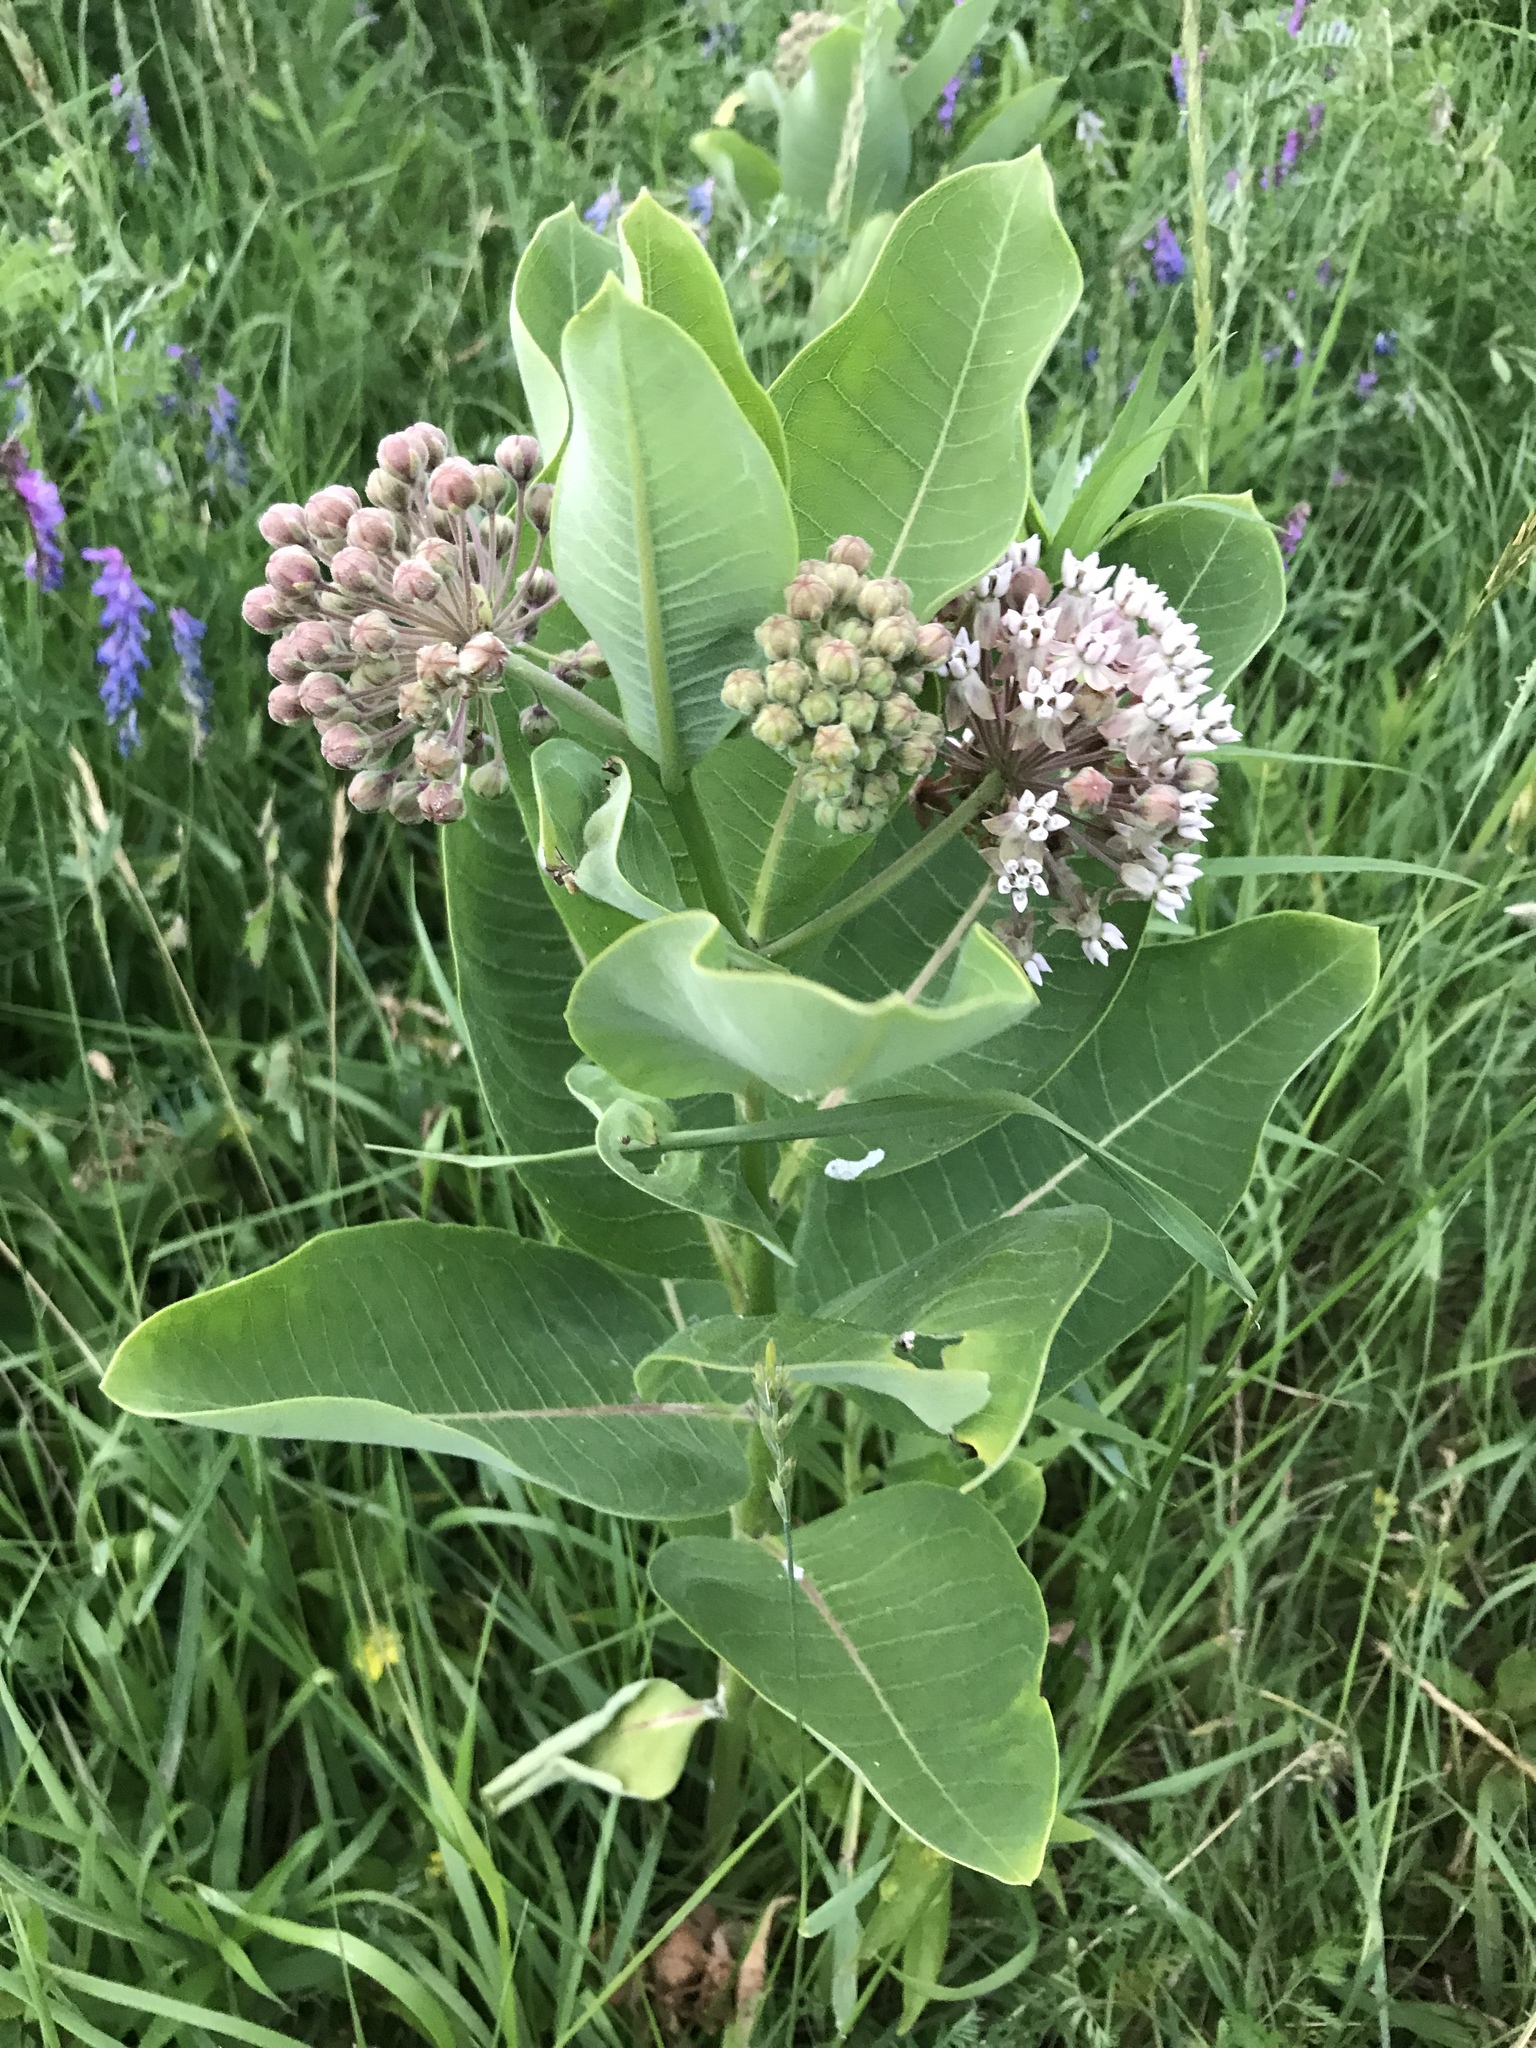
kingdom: Plantae
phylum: Tracheophyta
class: Magnoliopsida
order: Gentianales
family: Apocynaceae
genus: Asclepias
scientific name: Asclepias syriaca
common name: Common milkweed
